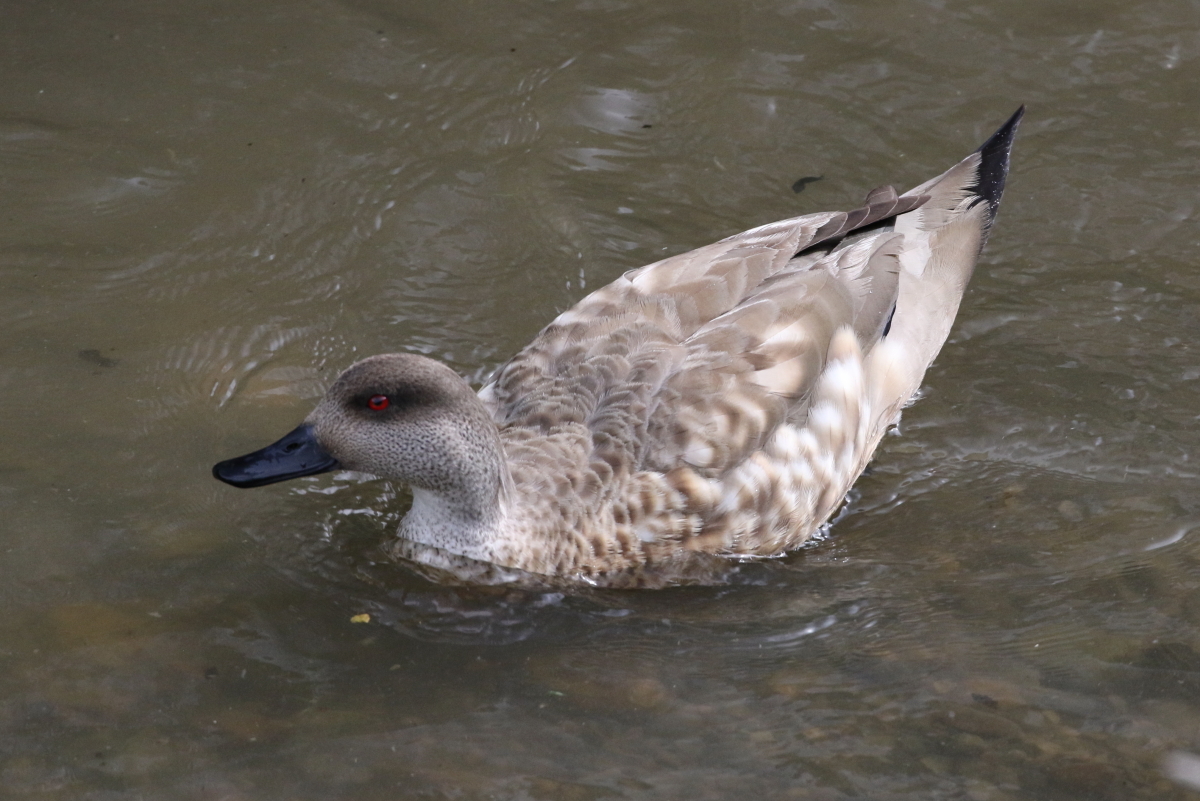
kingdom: Animalia
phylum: Chordata
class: Aves
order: Anseriformes
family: Anatidae
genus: Lophonetta
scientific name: Lophonetta specularioides
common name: Crested duck
